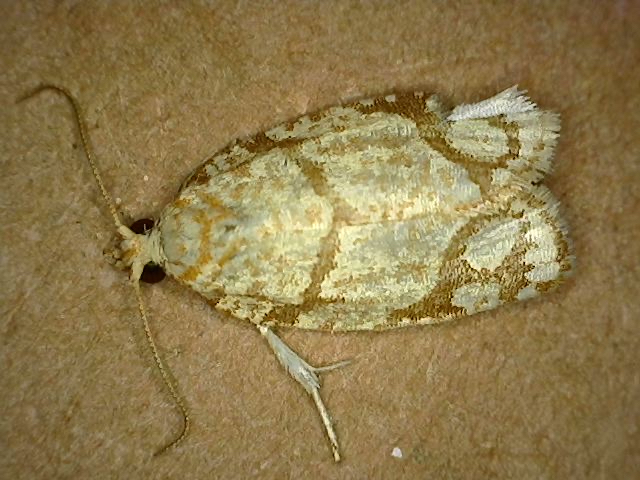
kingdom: Animalia
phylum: Arthropoda
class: Insecta
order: Lepidoptera
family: Tortricidae
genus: Argyrotaenia
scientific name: Argyrotaenia quercifoliana
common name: Yellow-winged oak leafroller moth
